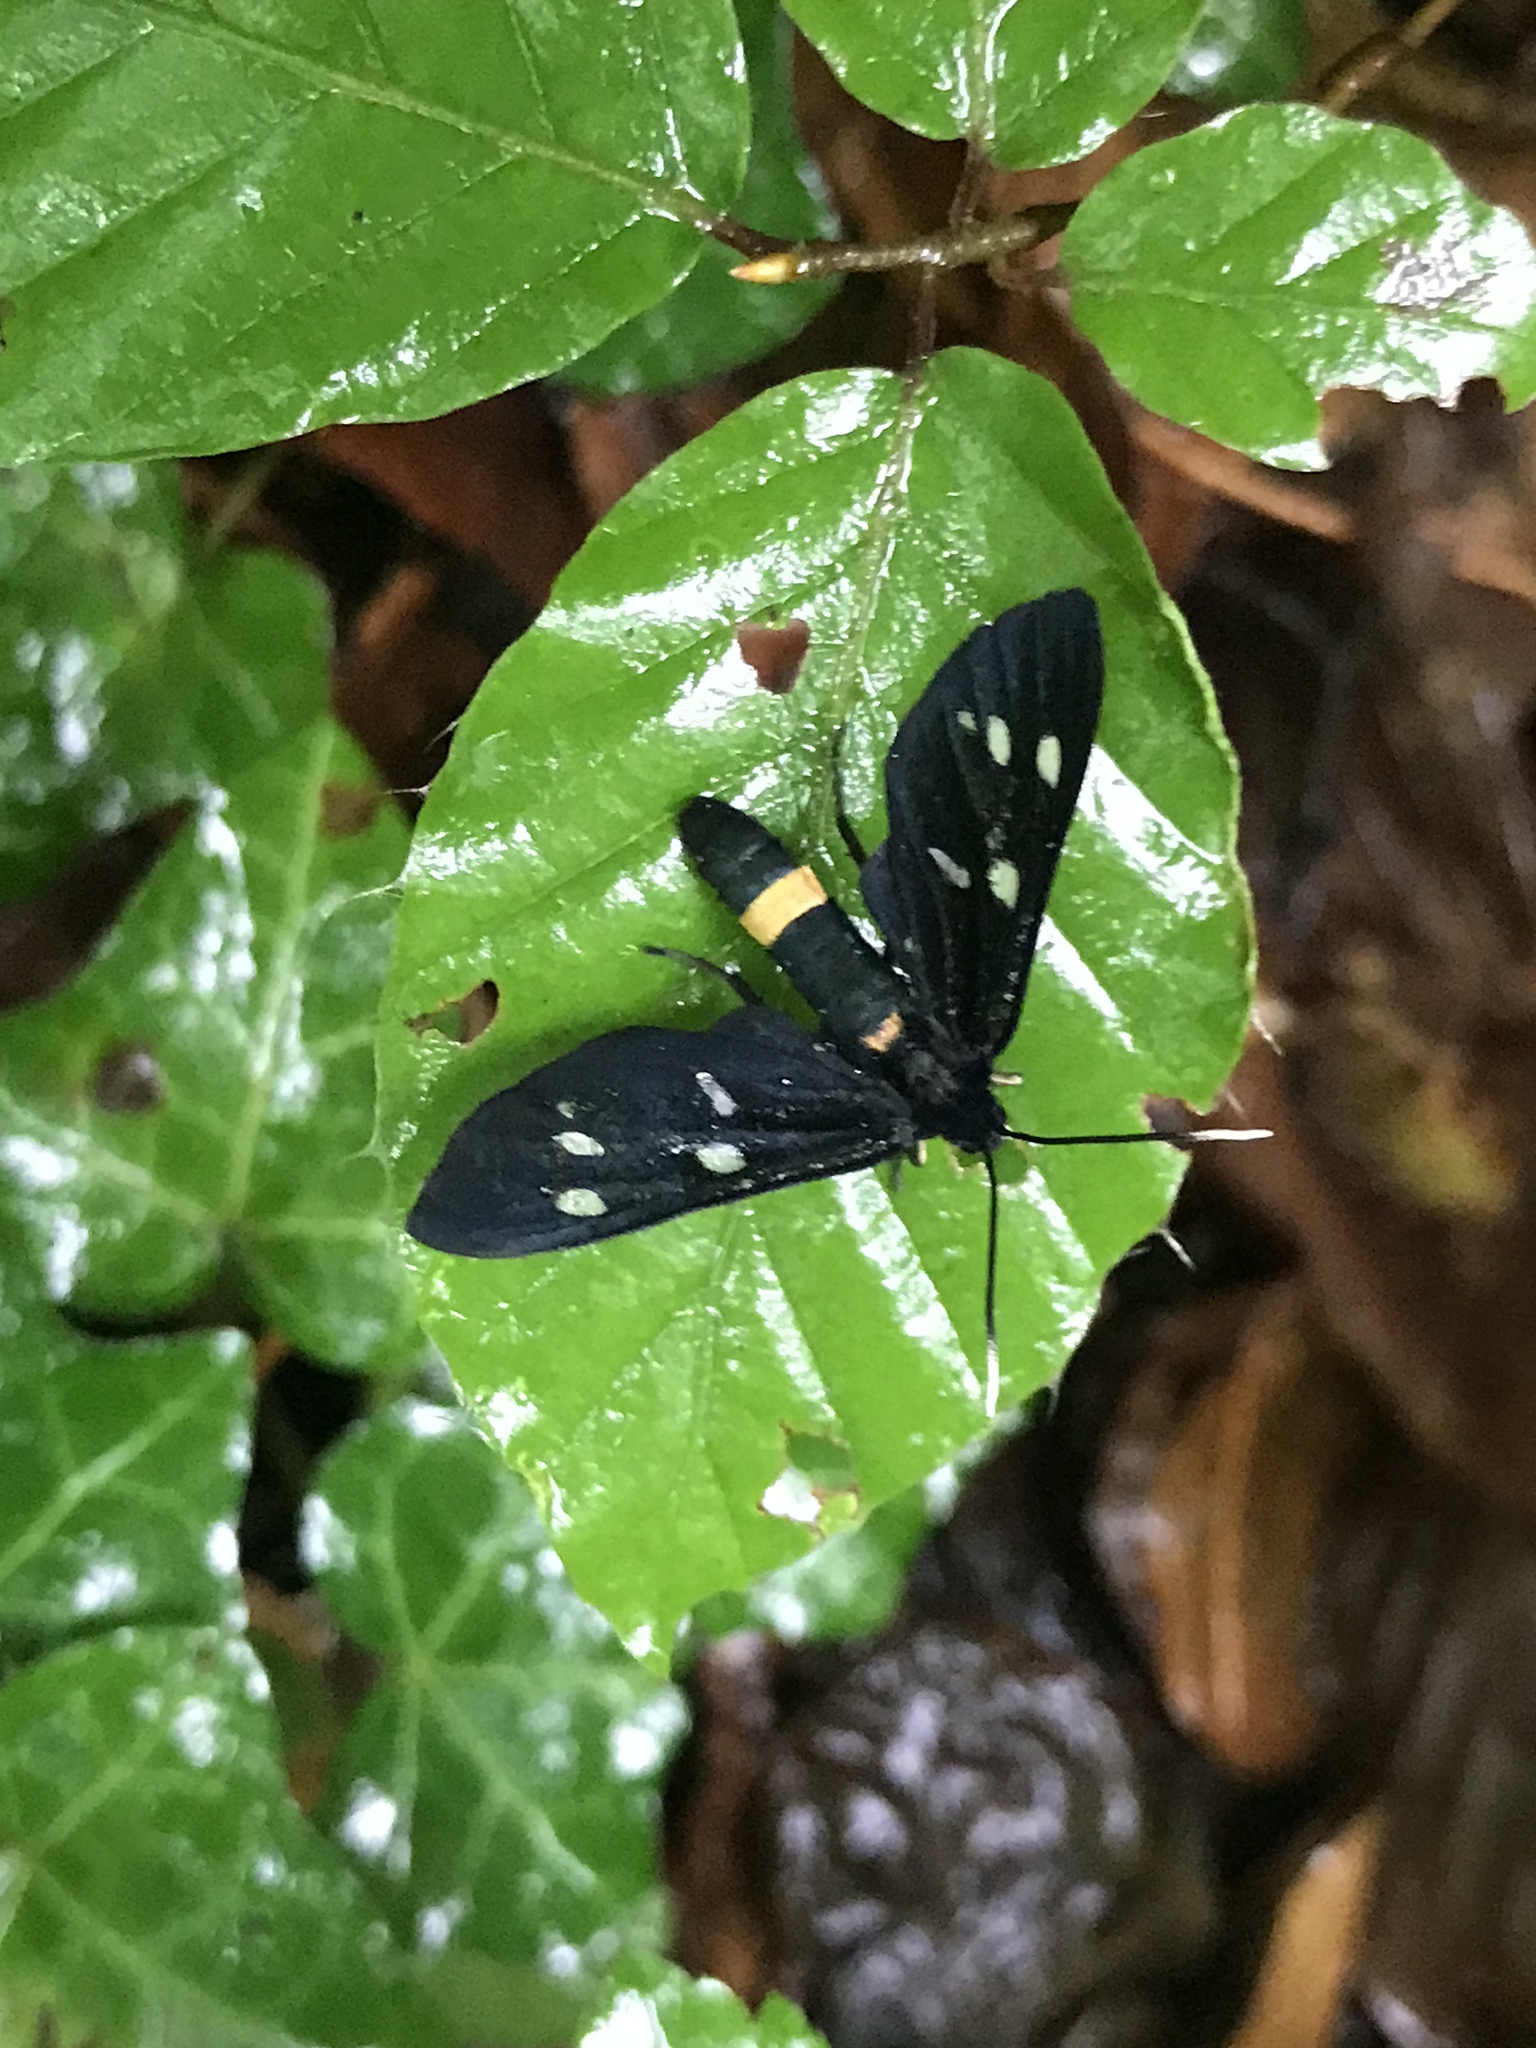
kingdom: Animalia
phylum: Arthropoda
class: Insecta
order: Lepidoptera
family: Erebidae
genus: Amata
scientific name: Amata phegea
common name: Nine-spotted
